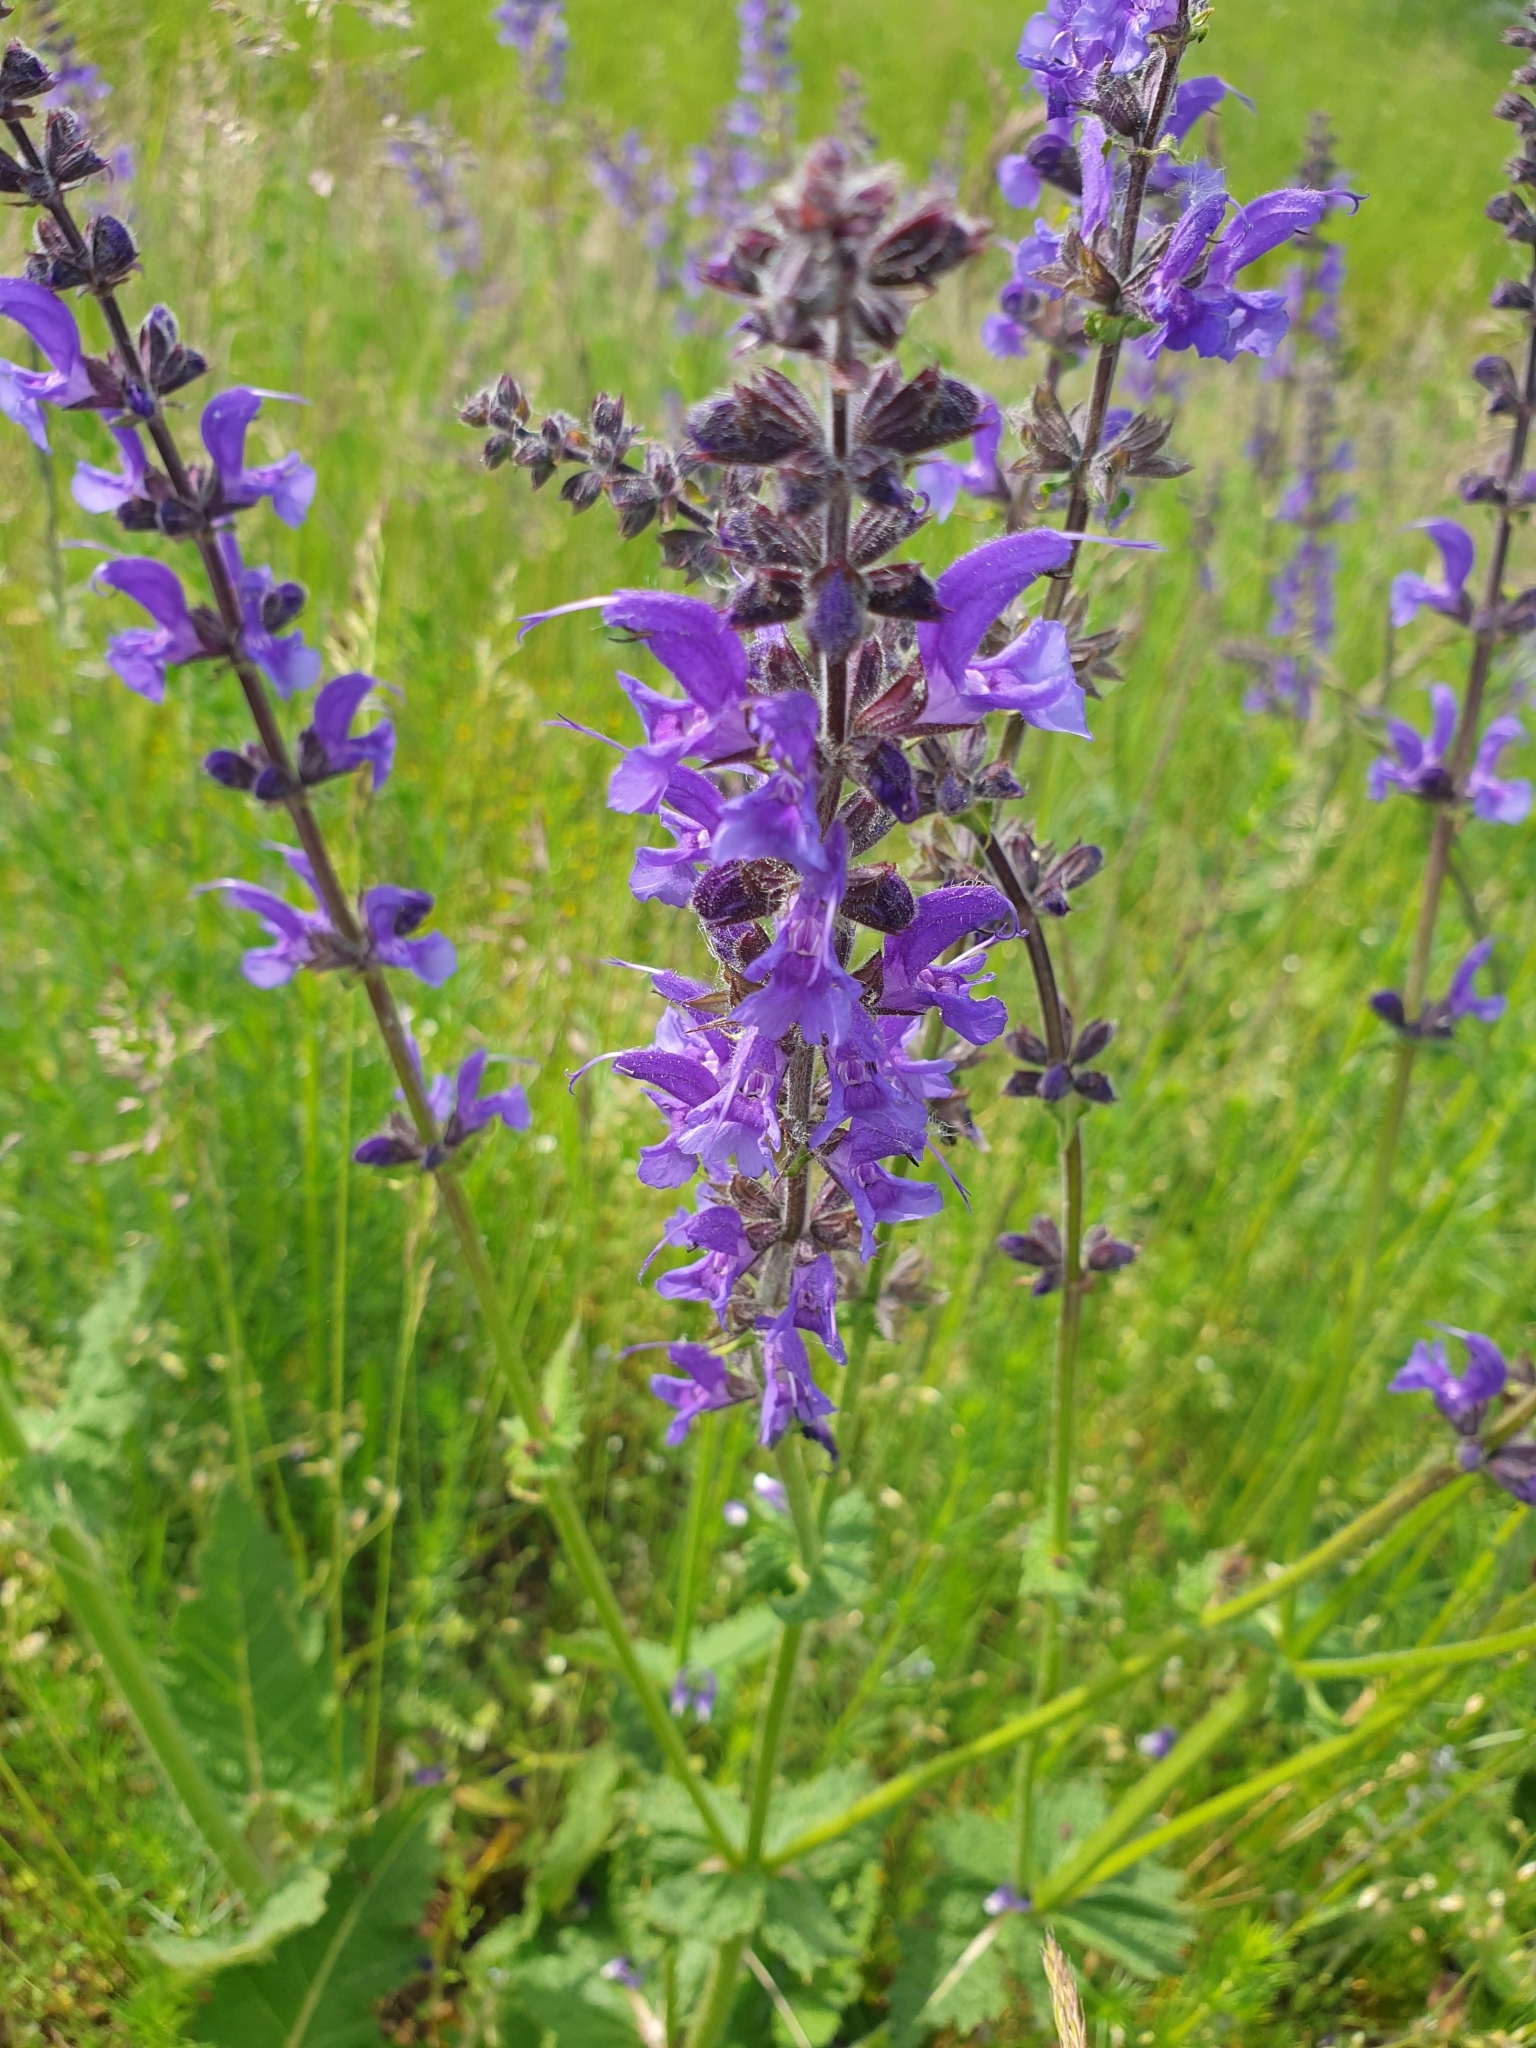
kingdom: Plantae
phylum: Tracheophyta
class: Magnoliopsida
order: Lamiales
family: Lamiaceae
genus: Salvia
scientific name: Salvia pratensis
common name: Meadow sage
